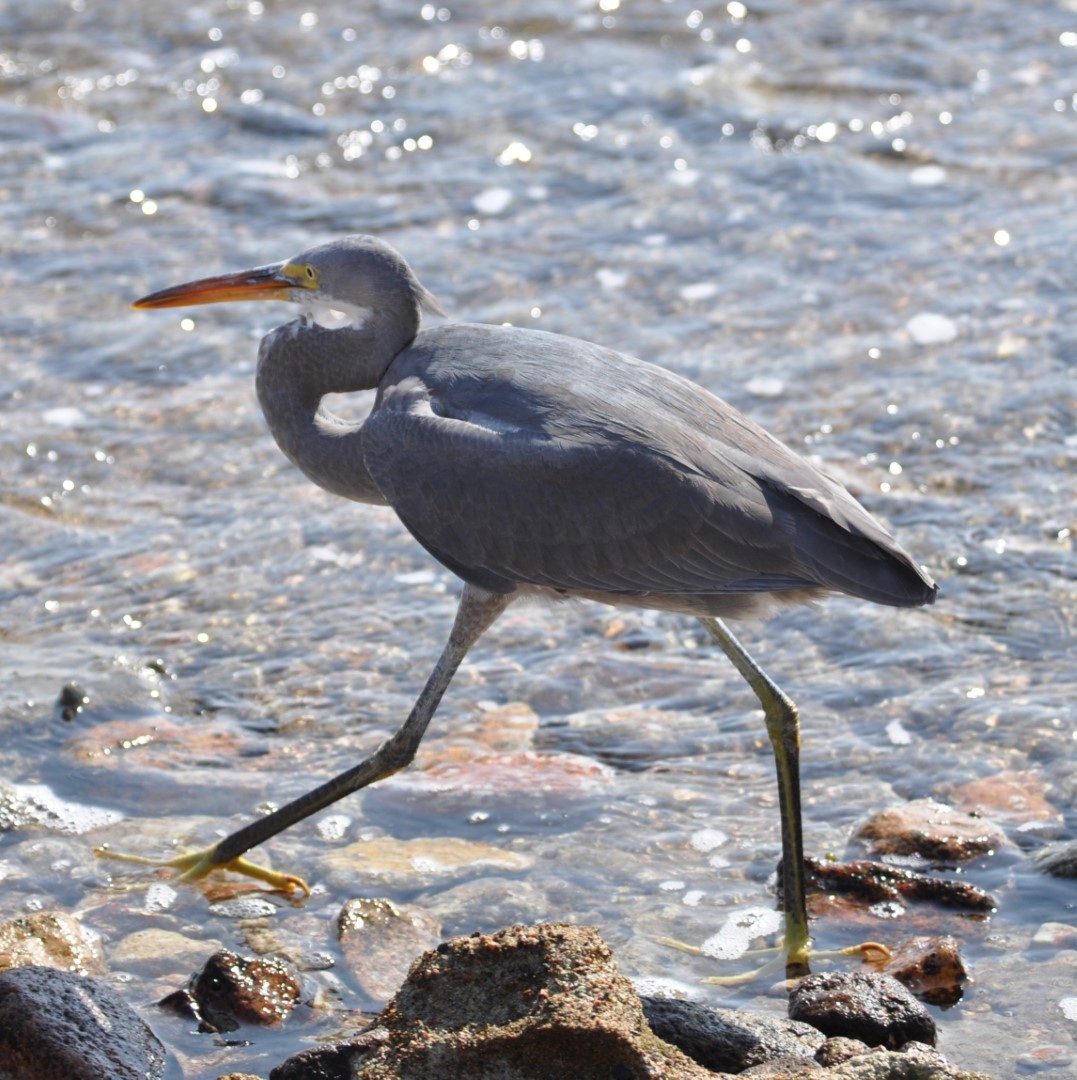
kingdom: Animalia
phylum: Chordata
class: Aves
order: Pelecaniformes
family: Ardeidae
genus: Egretta
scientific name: Egretta gularis
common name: Western reef-heron
